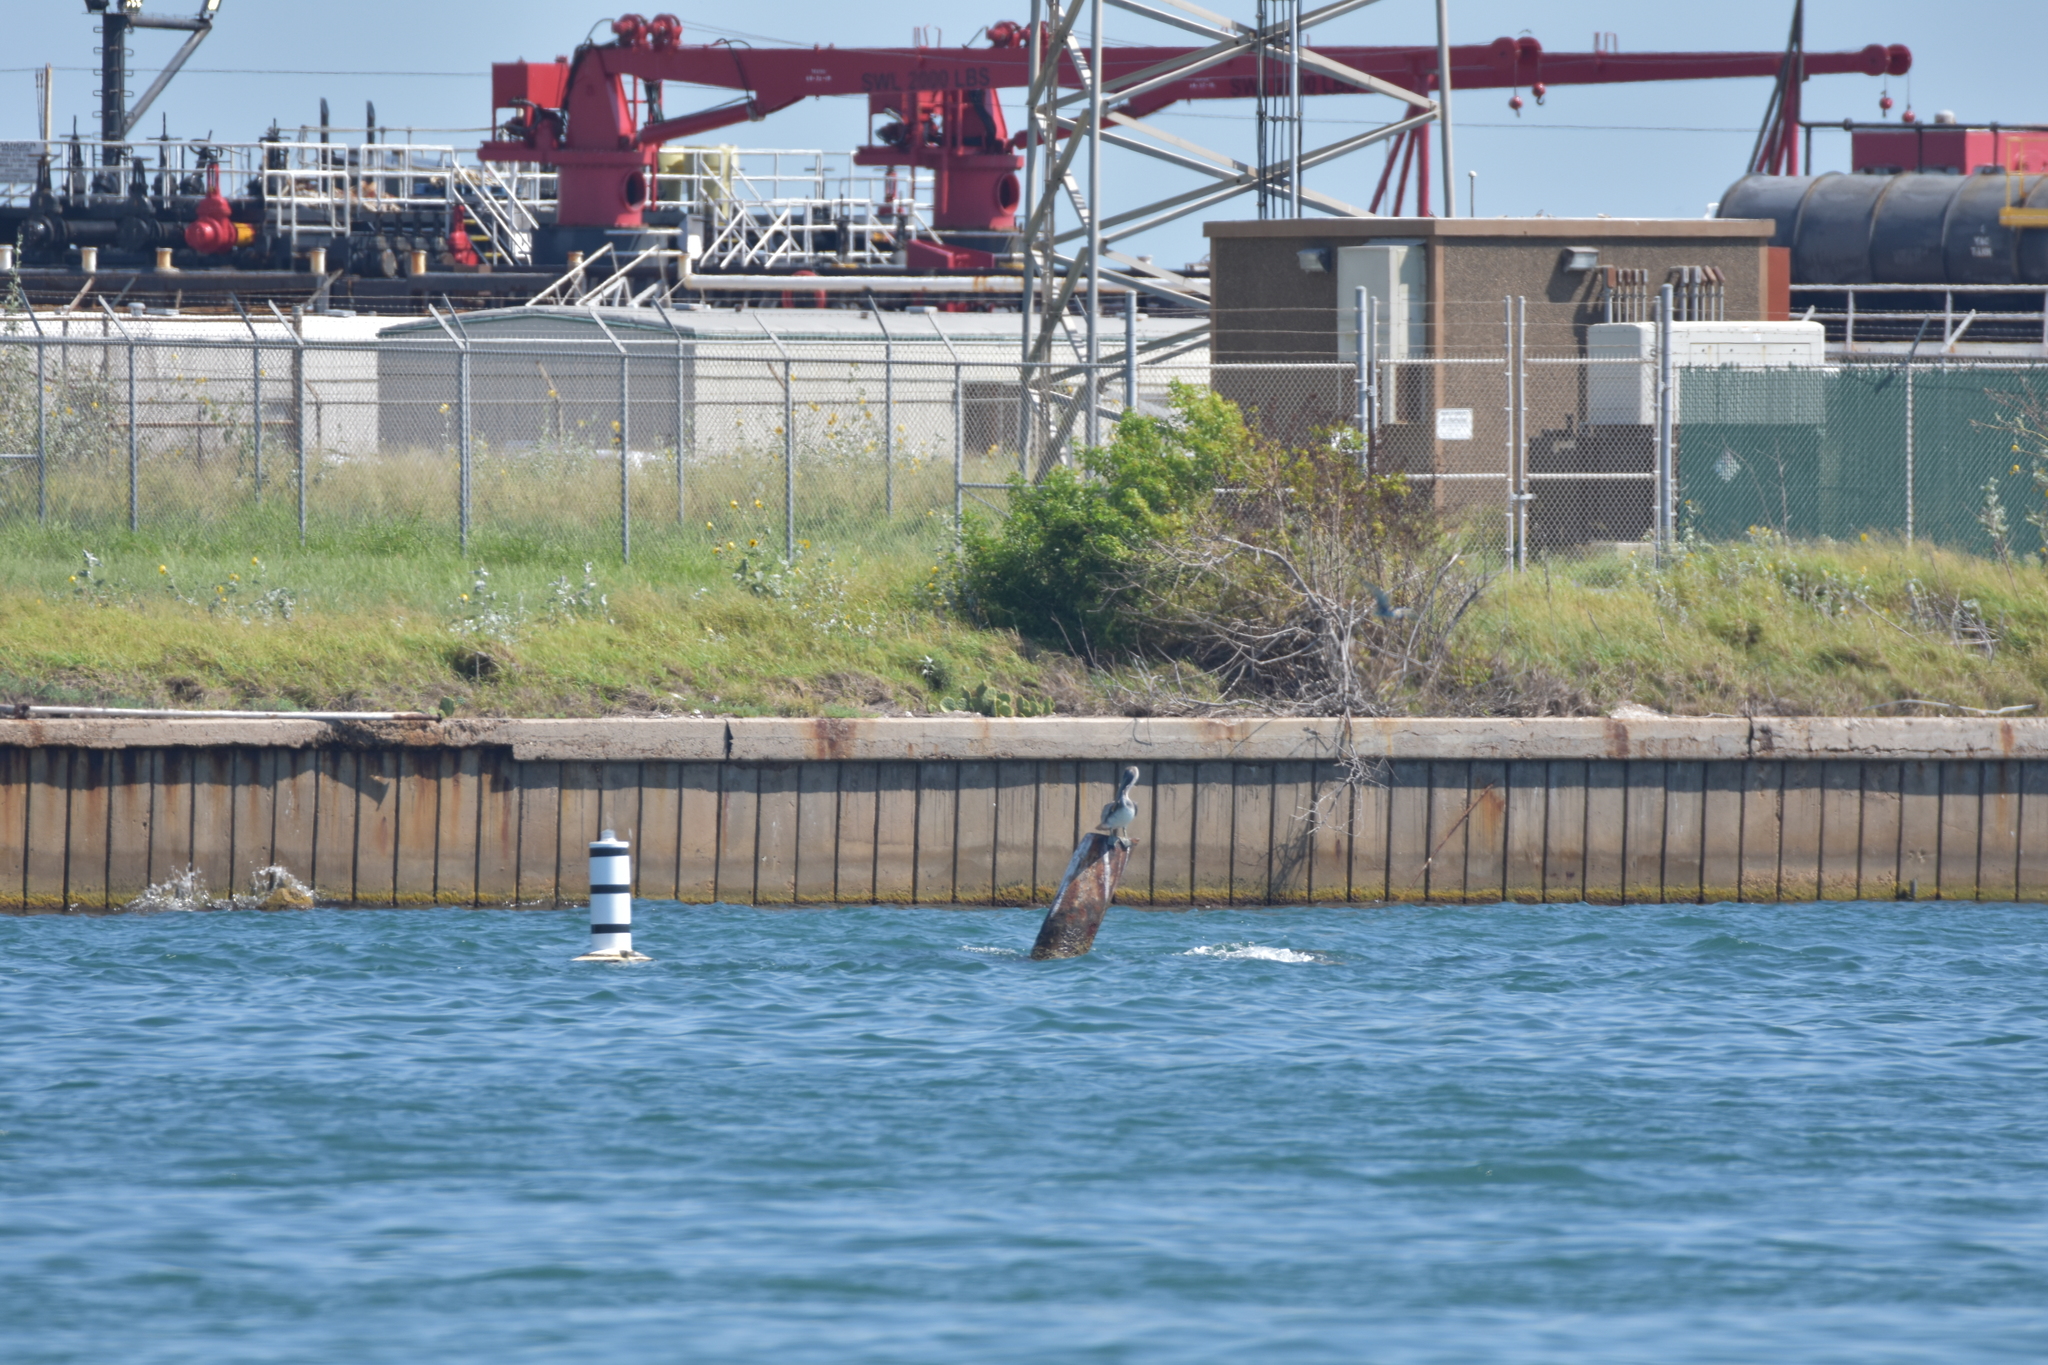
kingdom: Animalia
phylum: Chordata
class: Aves
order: Pelecaniformes
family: Pelecanidae
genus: Pelecanus
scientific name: Pelecanus occidentalis
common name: Brown pelican
